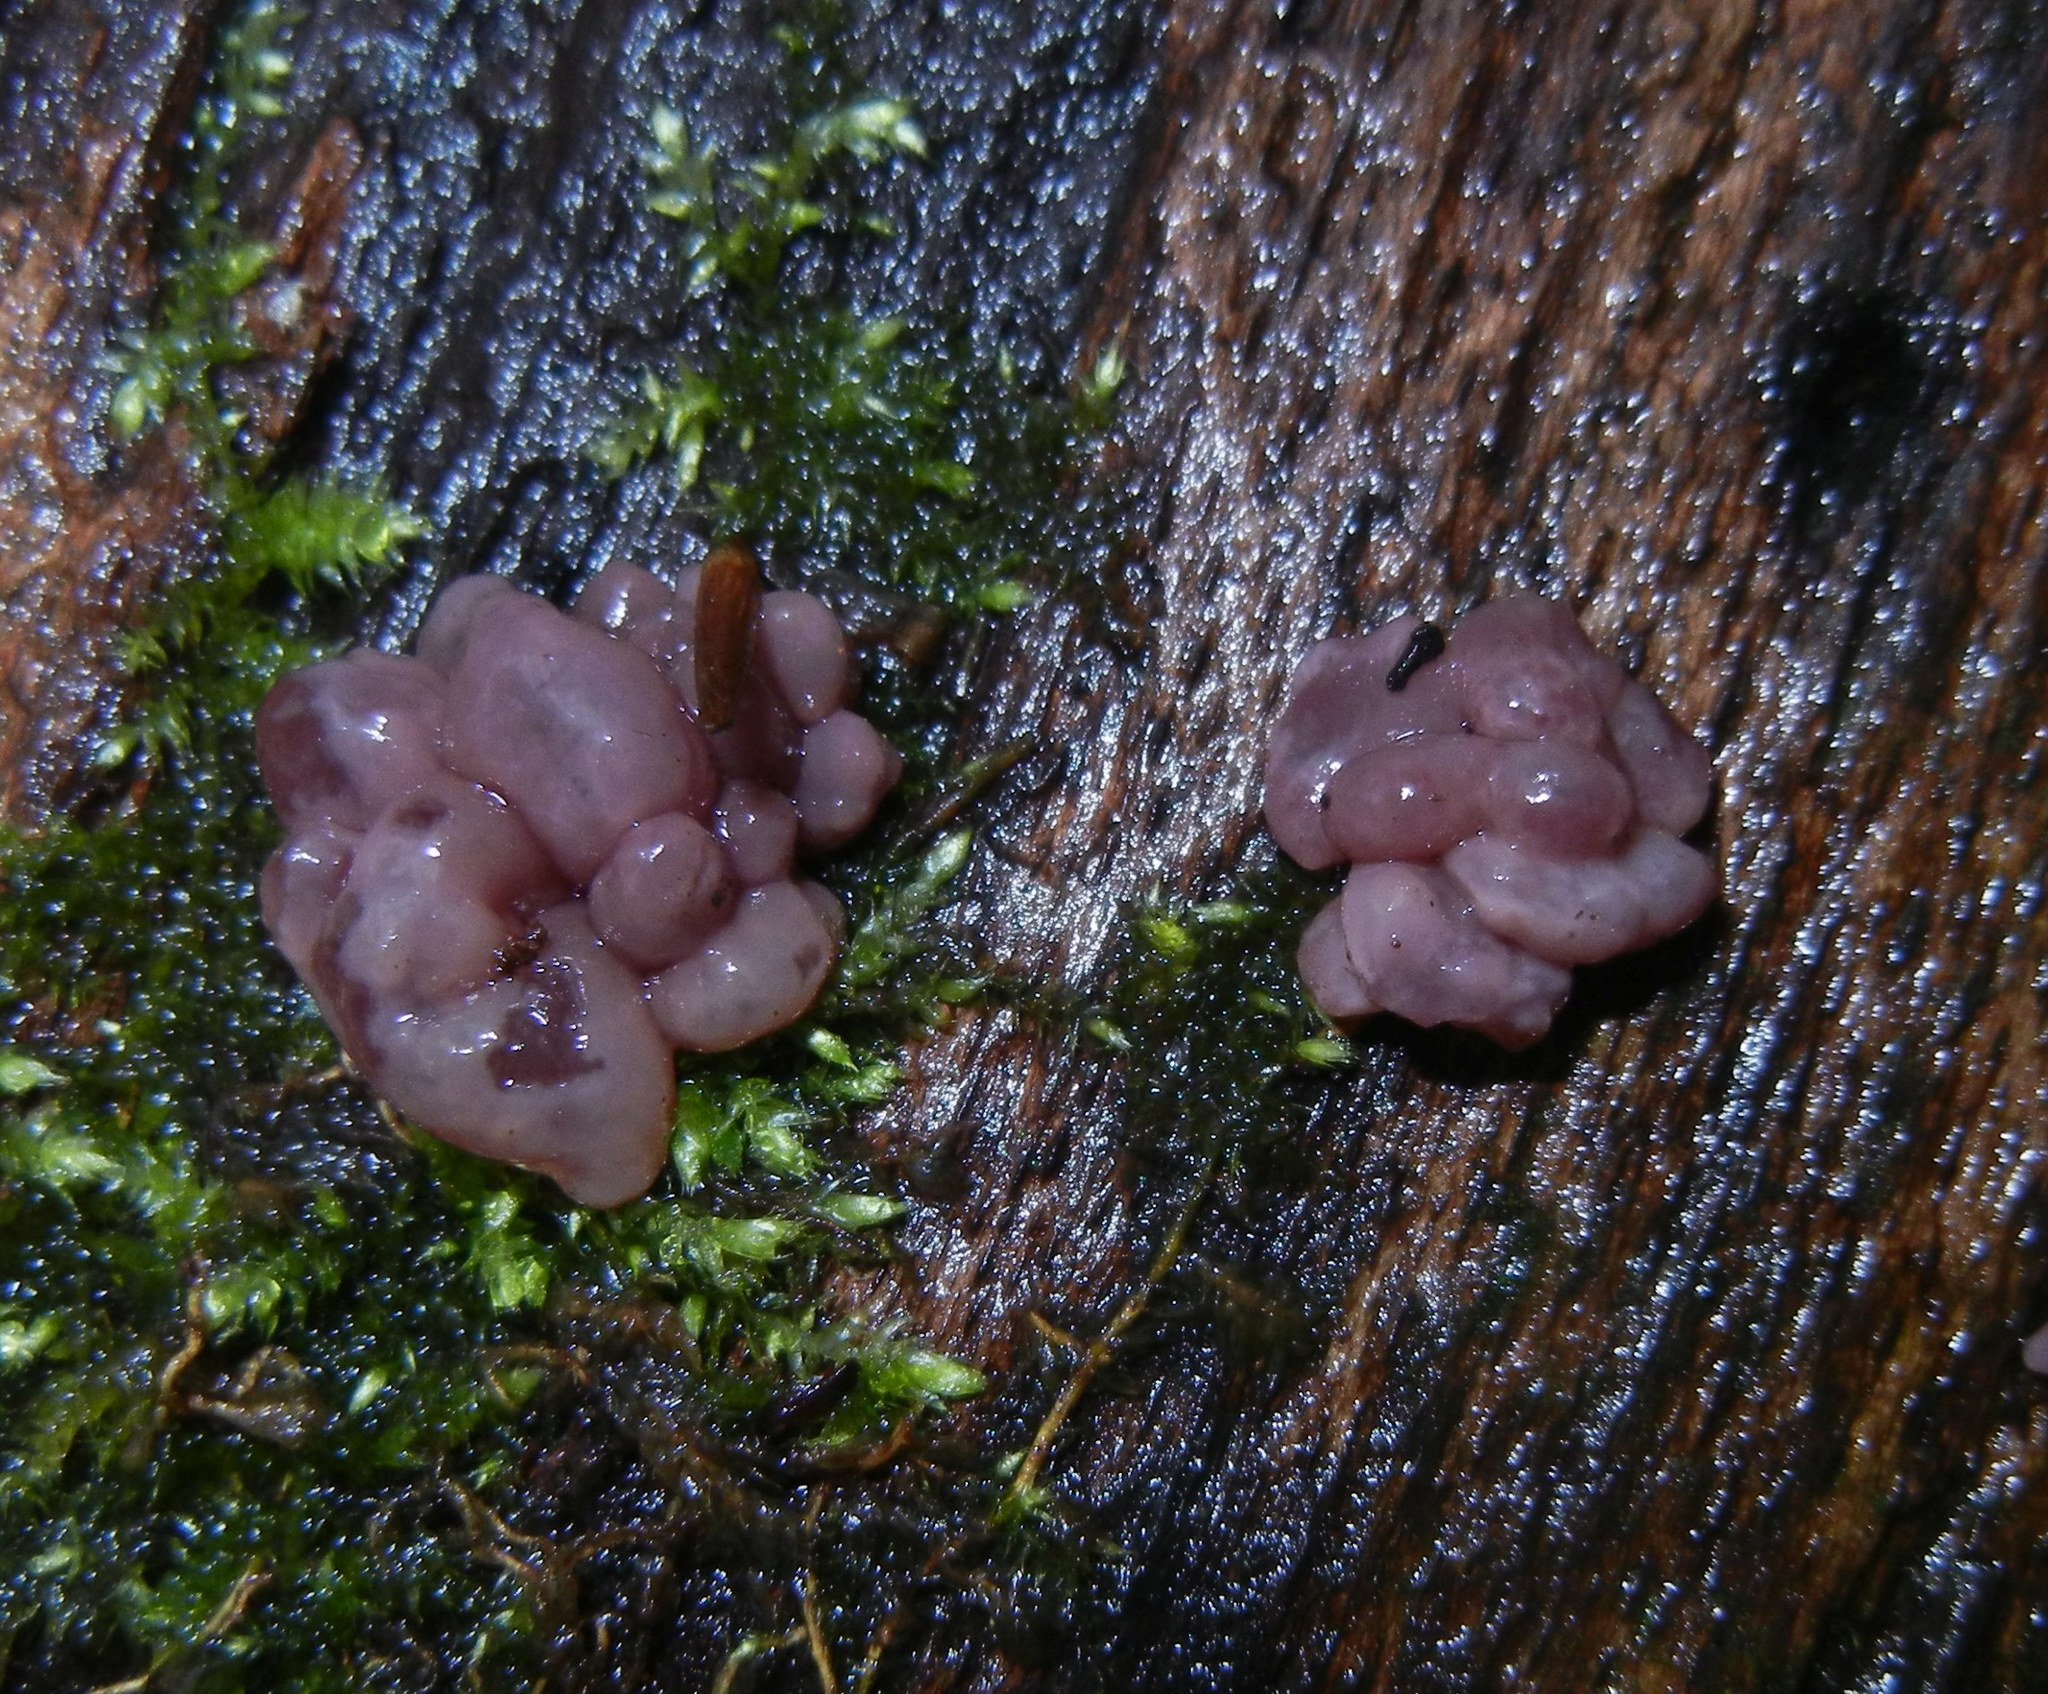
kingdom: Fungi
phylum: Ascomycota
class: Leotiomycetes
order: Helotiales
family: Gelatinodiscaceae
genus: Ascocoryne
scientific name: Ascocoryne sarcoides
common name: Purple jellydisc
